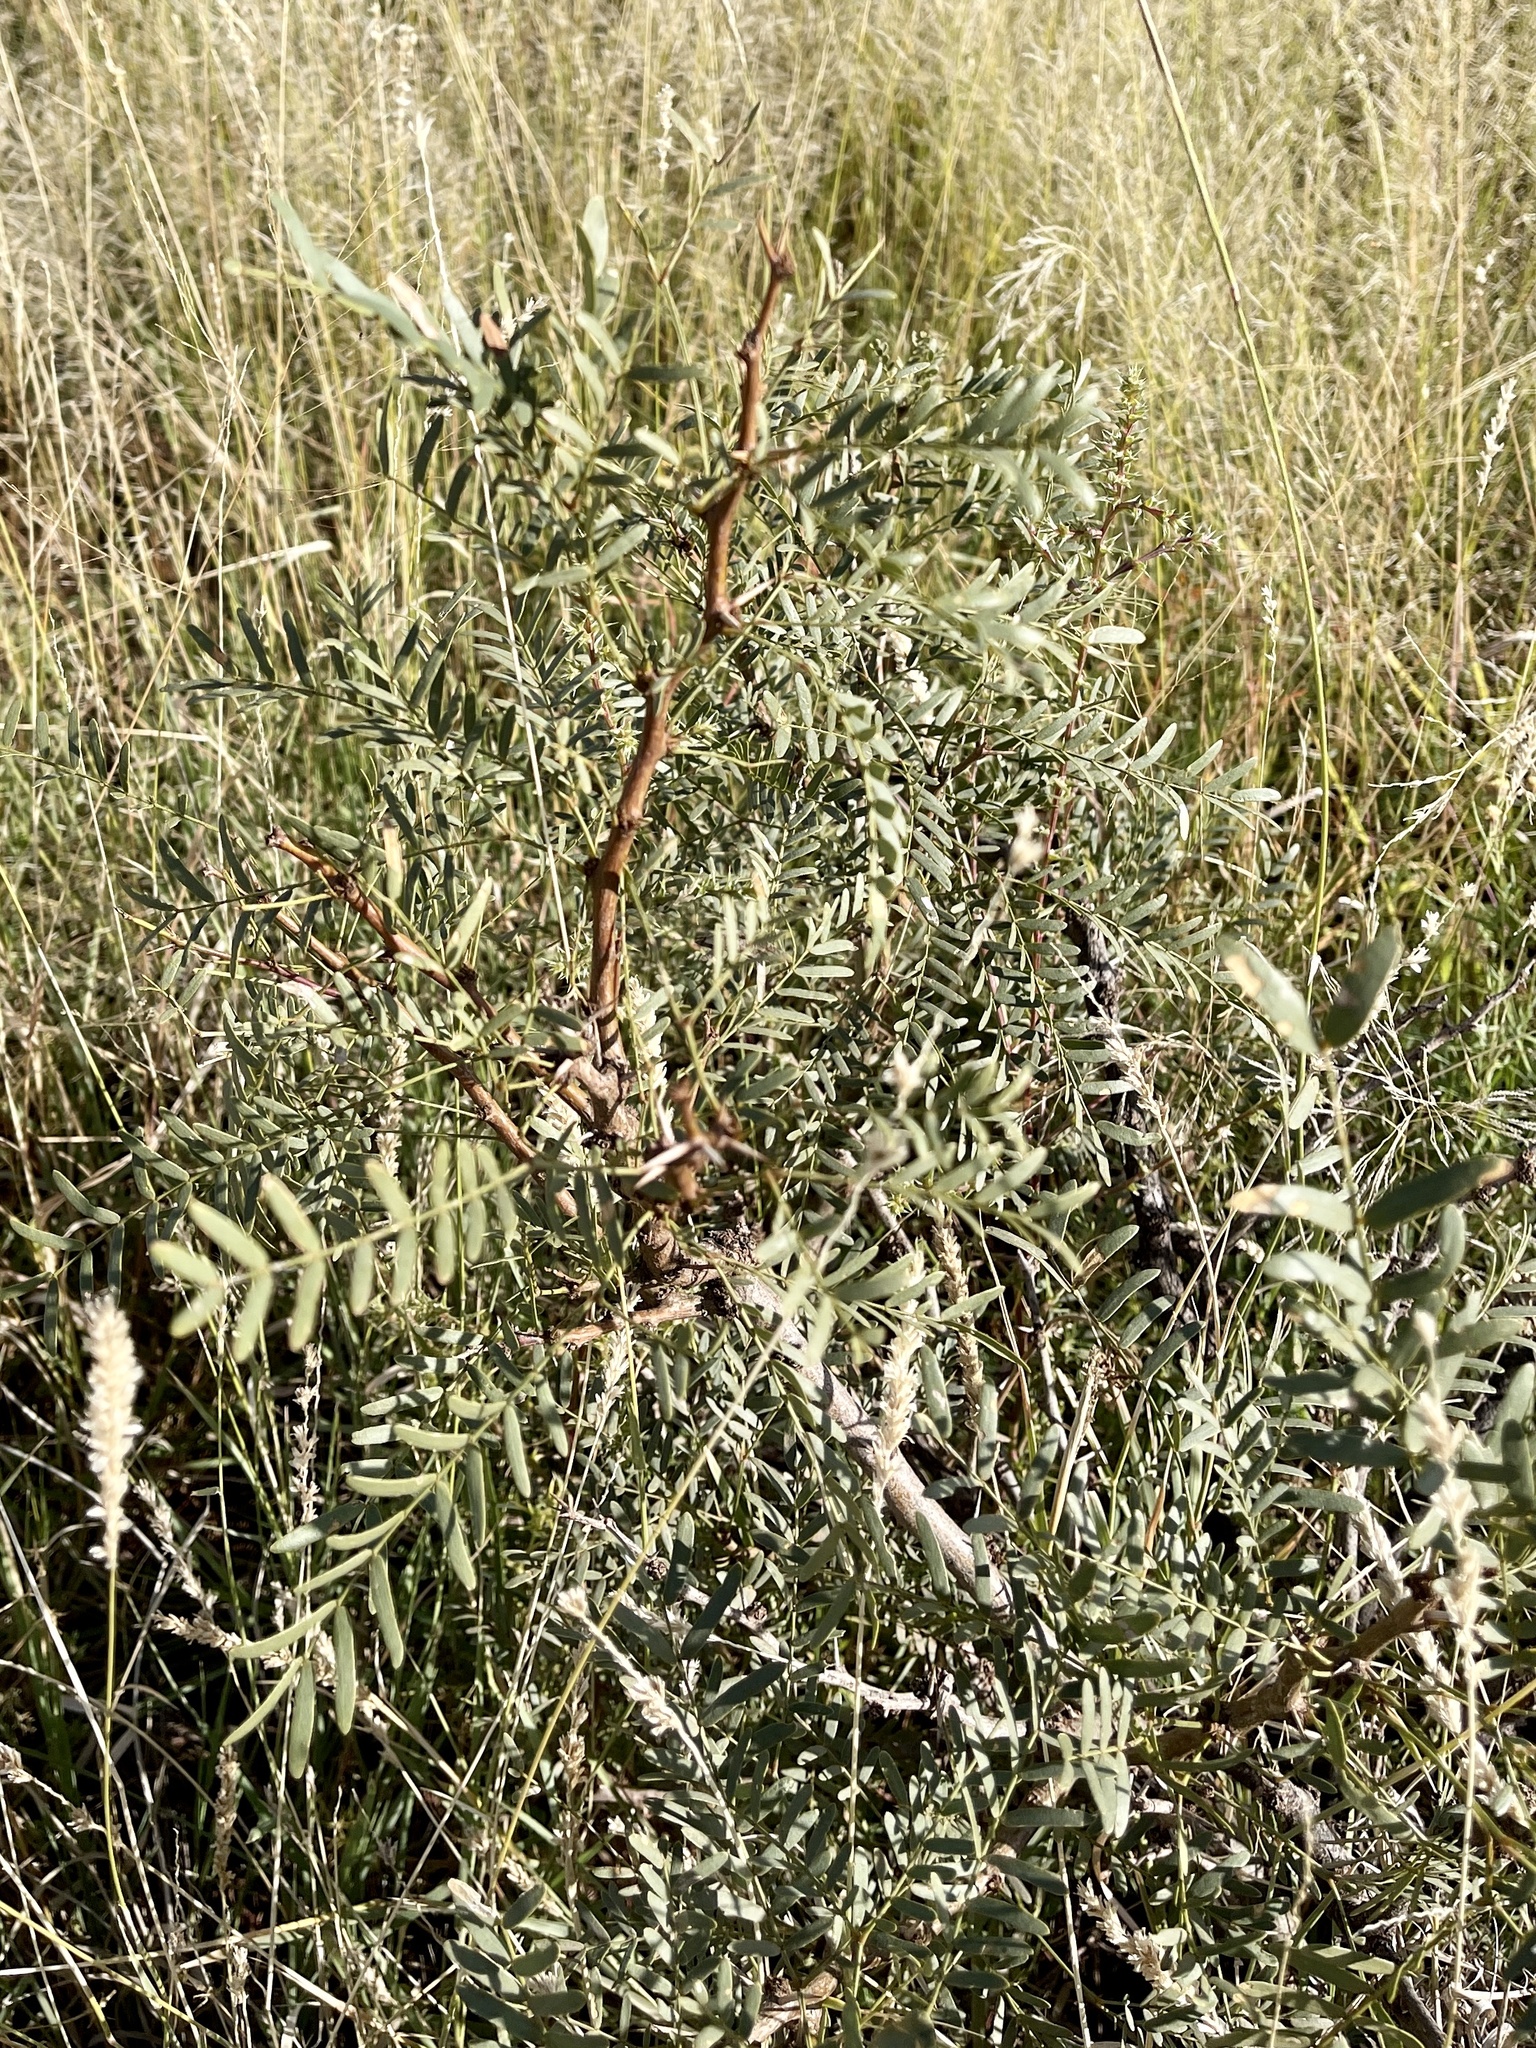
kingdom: Plantae
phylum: Tracheophyta
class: Magnoliopsida
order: Fabales
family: Fabaceae
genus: Prosopis
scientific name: Prosopis glandulosa
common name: Honey mesquite
